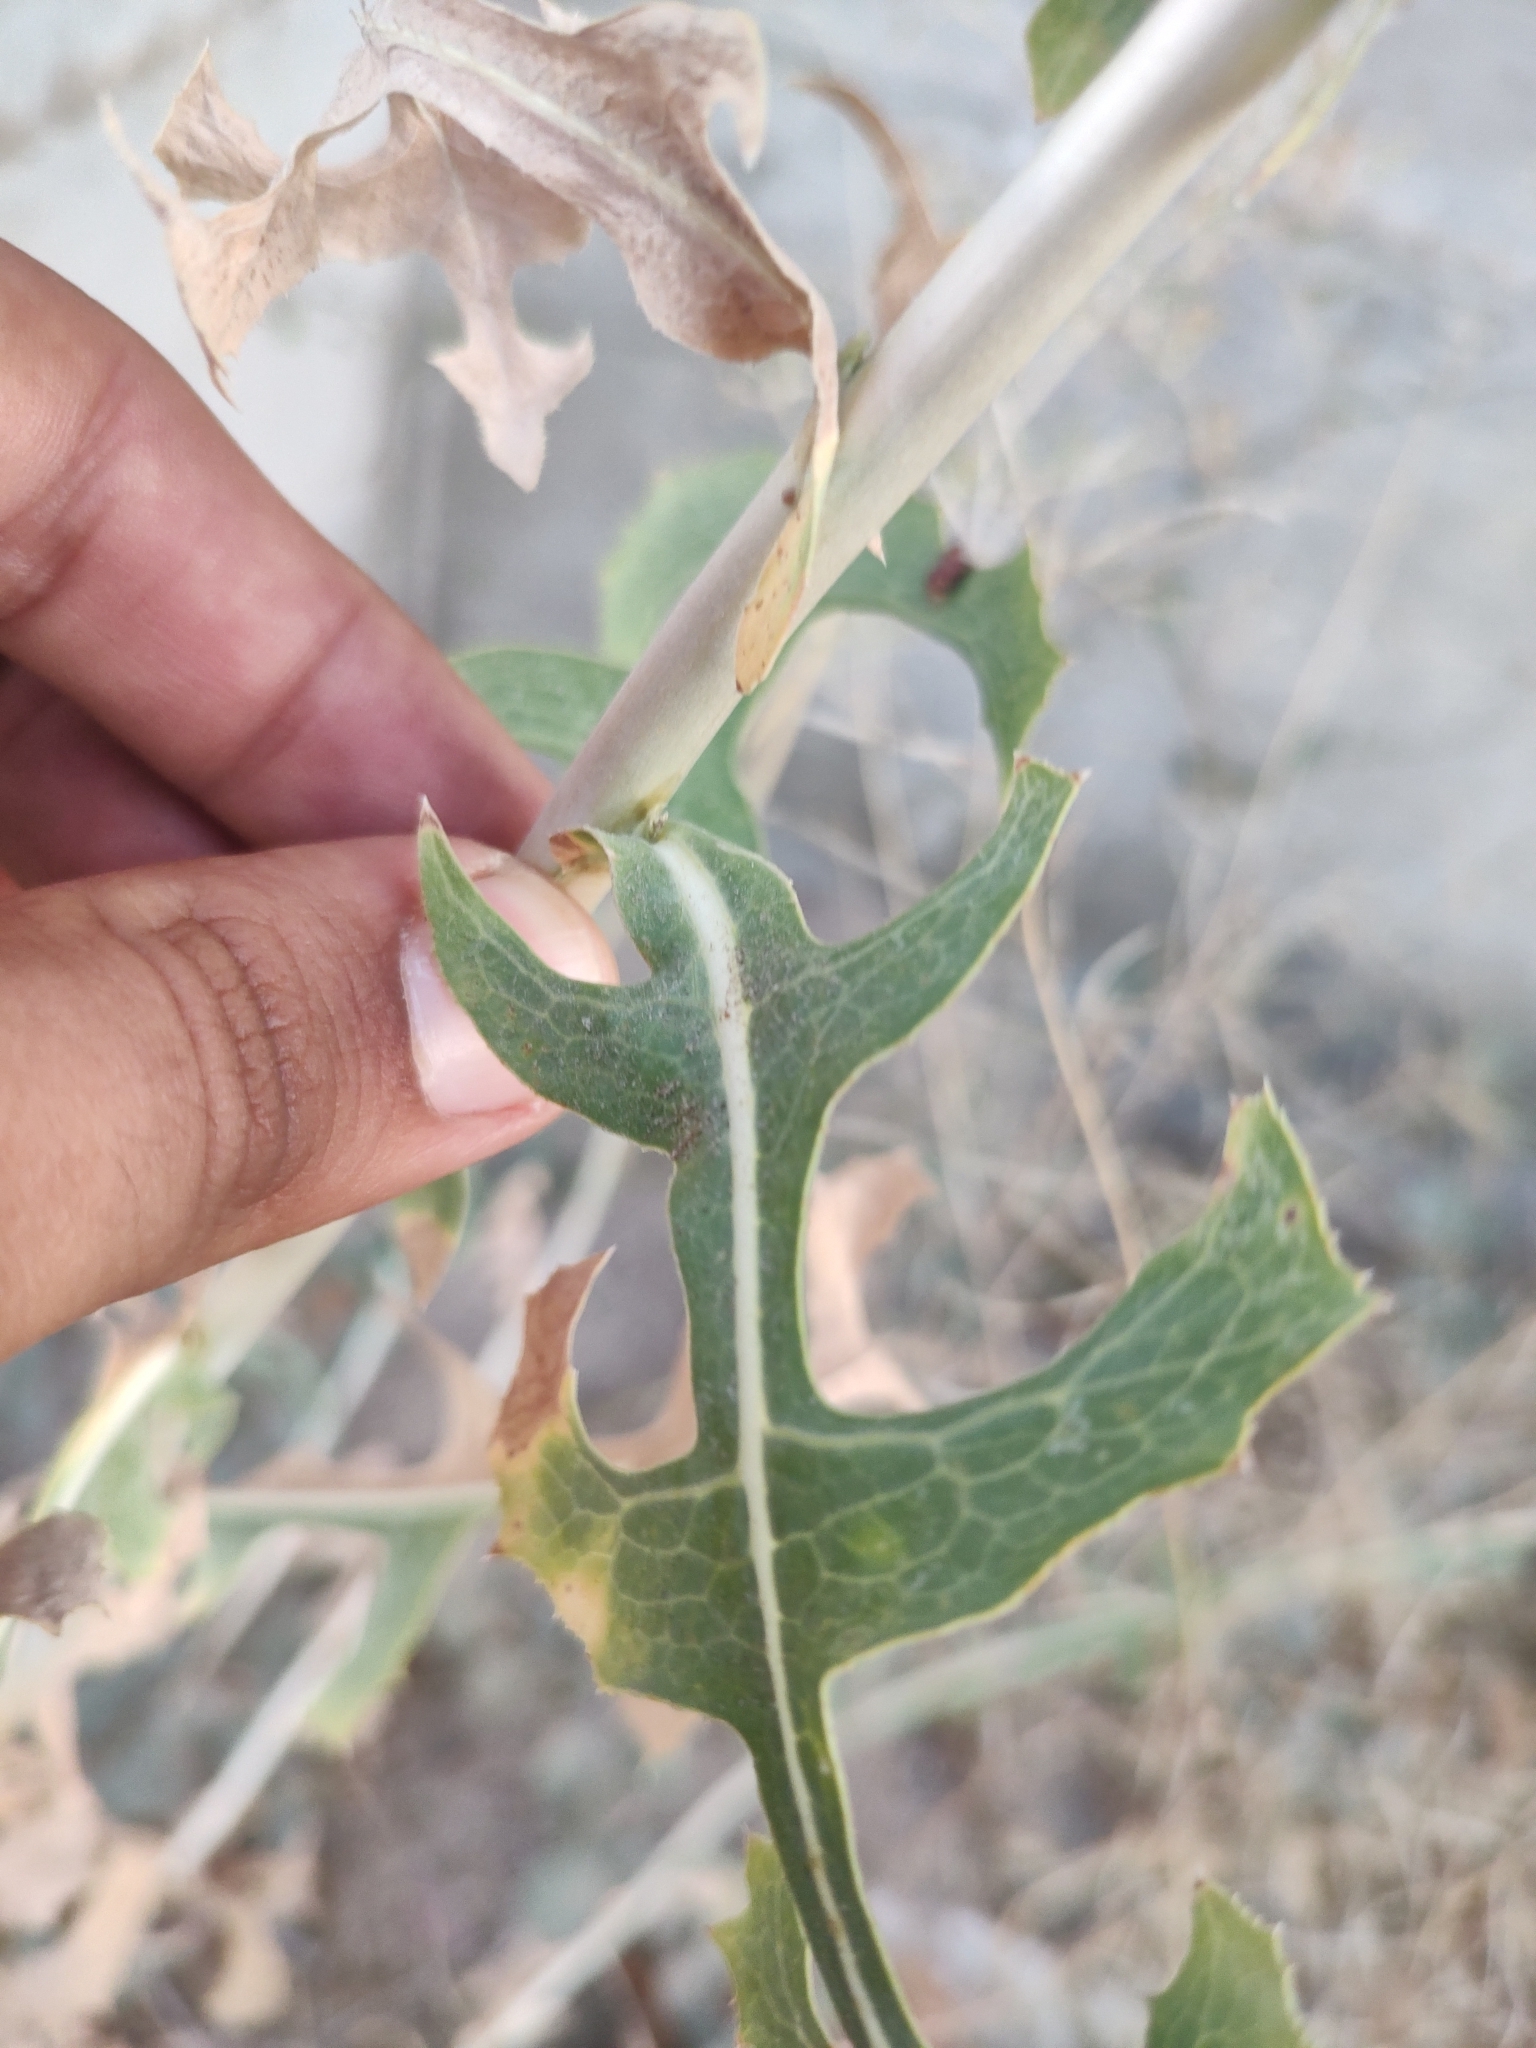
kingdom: Plantae
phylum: Tracheophyta
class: Magnoliopsida
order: Asterales
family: Asteraceae
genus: Lactuca
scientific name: Lactuca serriola
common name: Prickly lettuce
